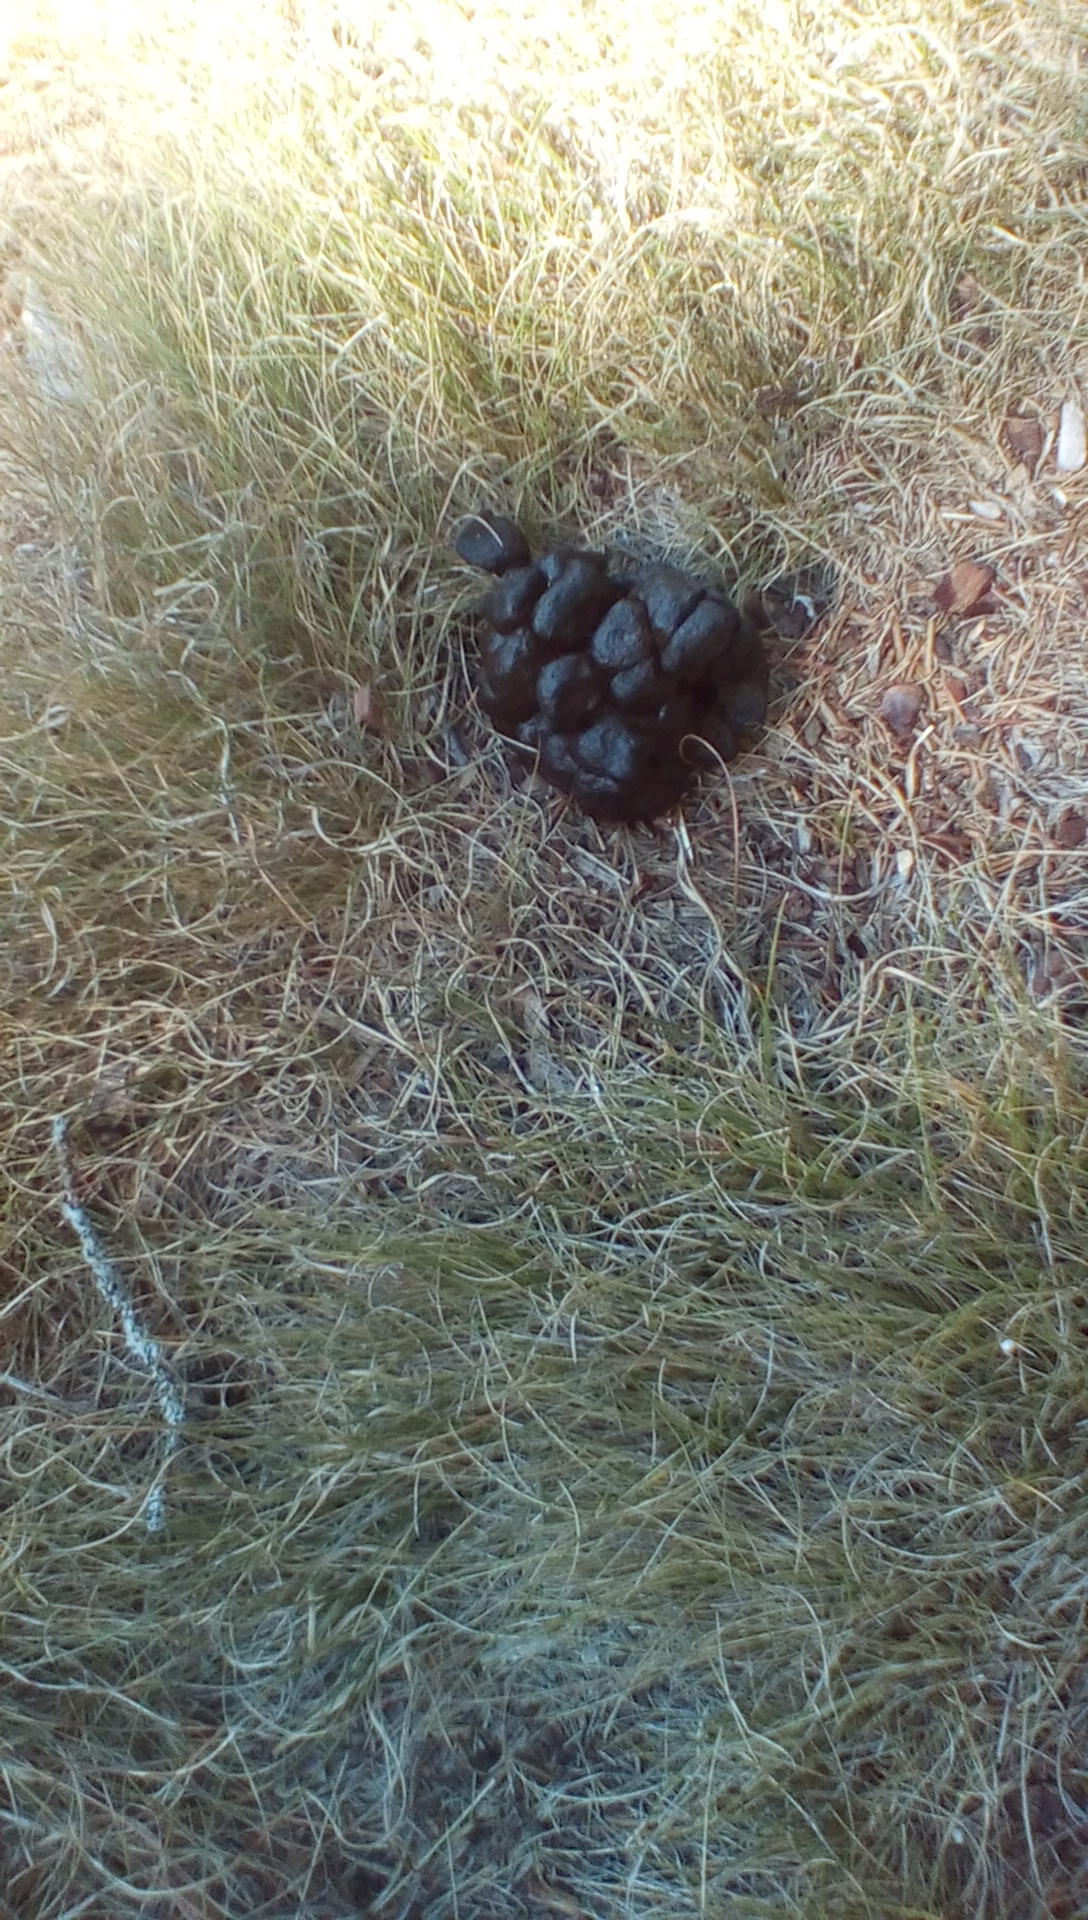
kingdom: Animalia
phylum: Chordata
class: Mammalia
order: Artiodactyla
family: Cervidae
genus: Odocoileus
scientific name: Odocoileus virginianus
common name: White-tailed deer
